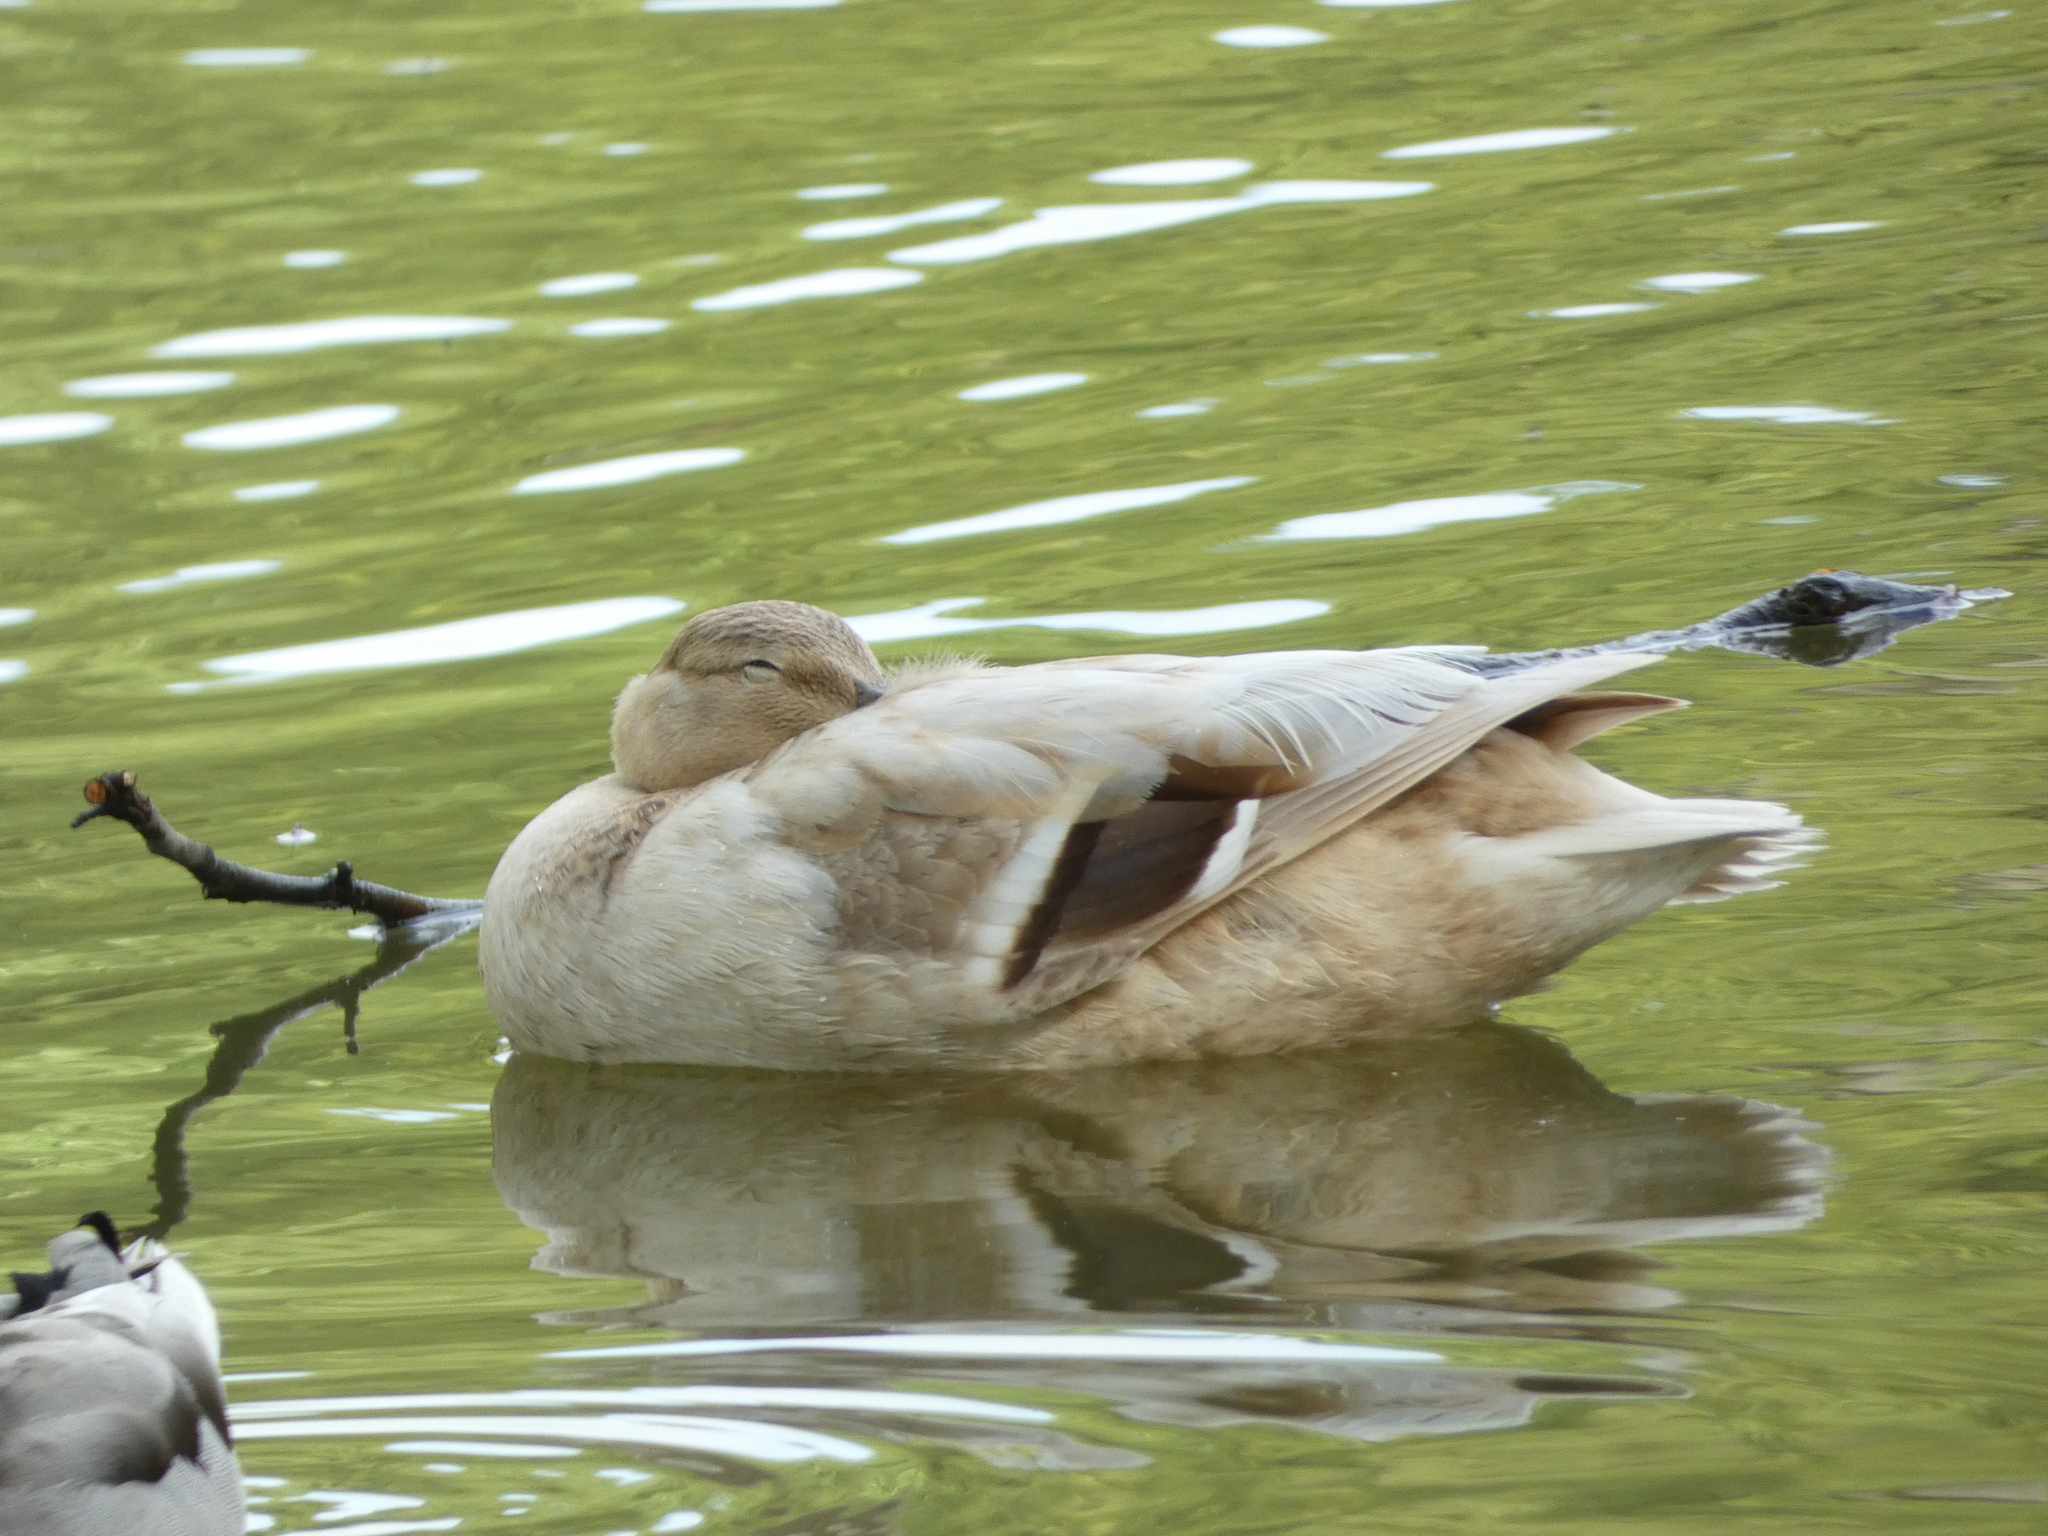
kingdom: Animalia
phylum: Chordata
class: Aves
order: Anseriformes
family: Anatidae
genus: Anas
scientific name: Anas platyrhynchos
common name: Mallard
